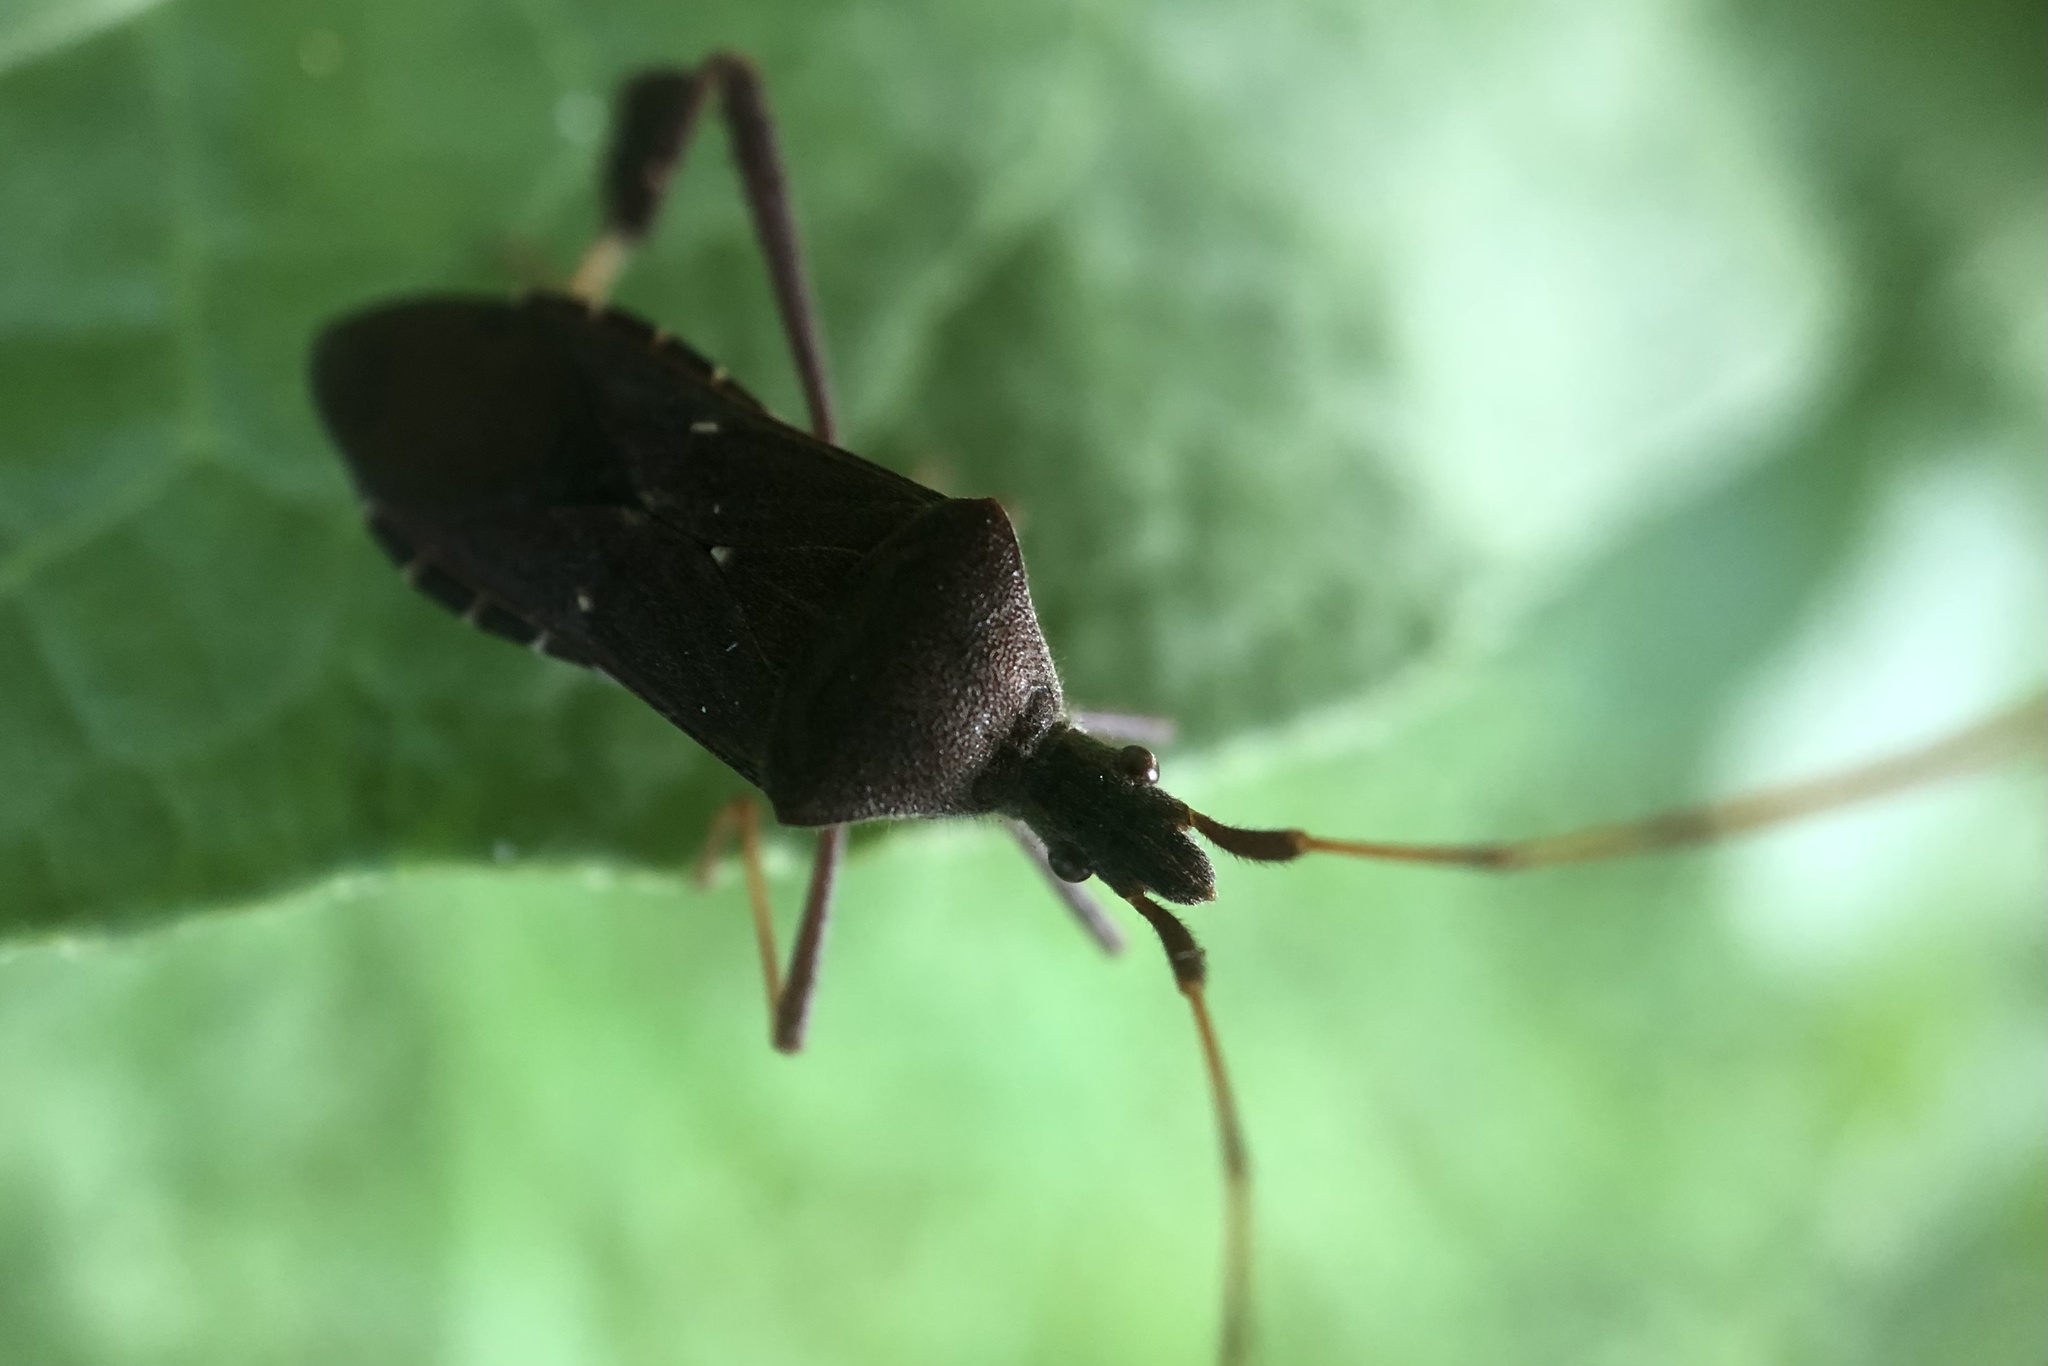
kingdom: Animalia
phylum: Arthropoda
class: Insecta
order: Hemiptera
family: Coreidae
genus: Leptoglossus
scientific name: Leptoglossus oppositus
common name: Northern leaf-footed bug
